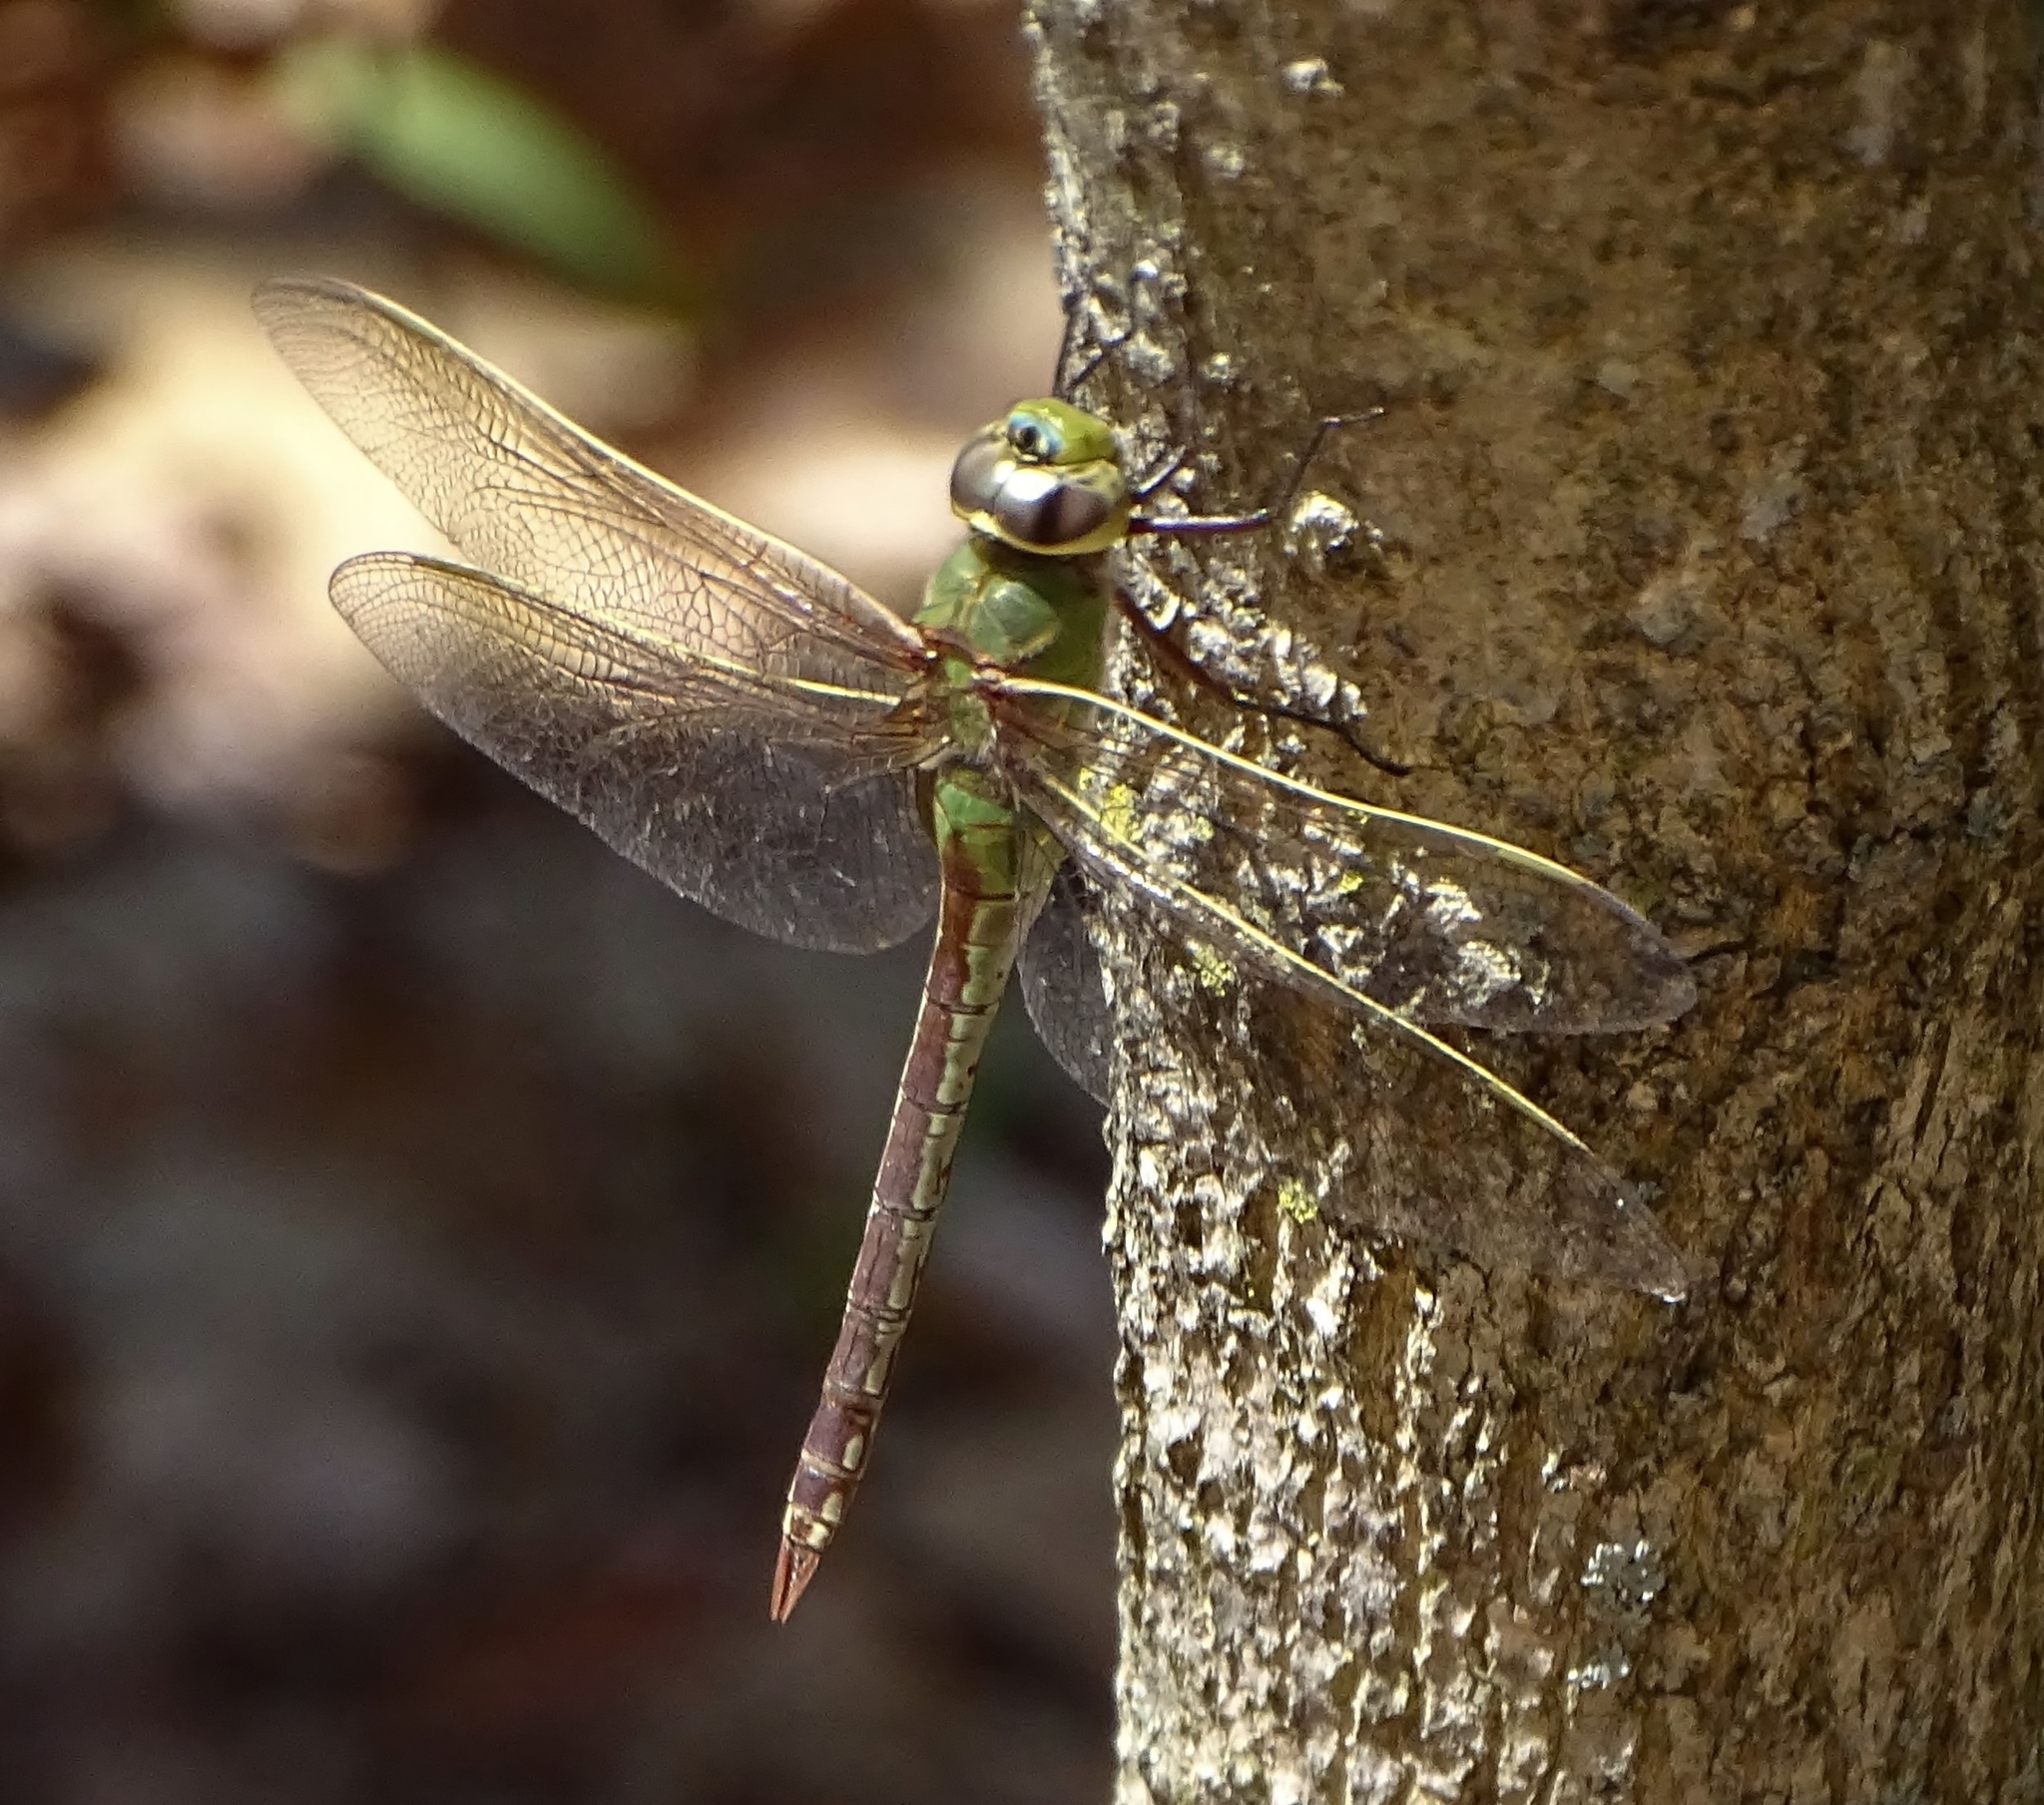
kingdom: Animalia
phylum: Arthropoda
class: Insecta
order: Odonata
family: Aeshnidae
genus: Anax
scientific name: Anax junius
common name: Common green darner
